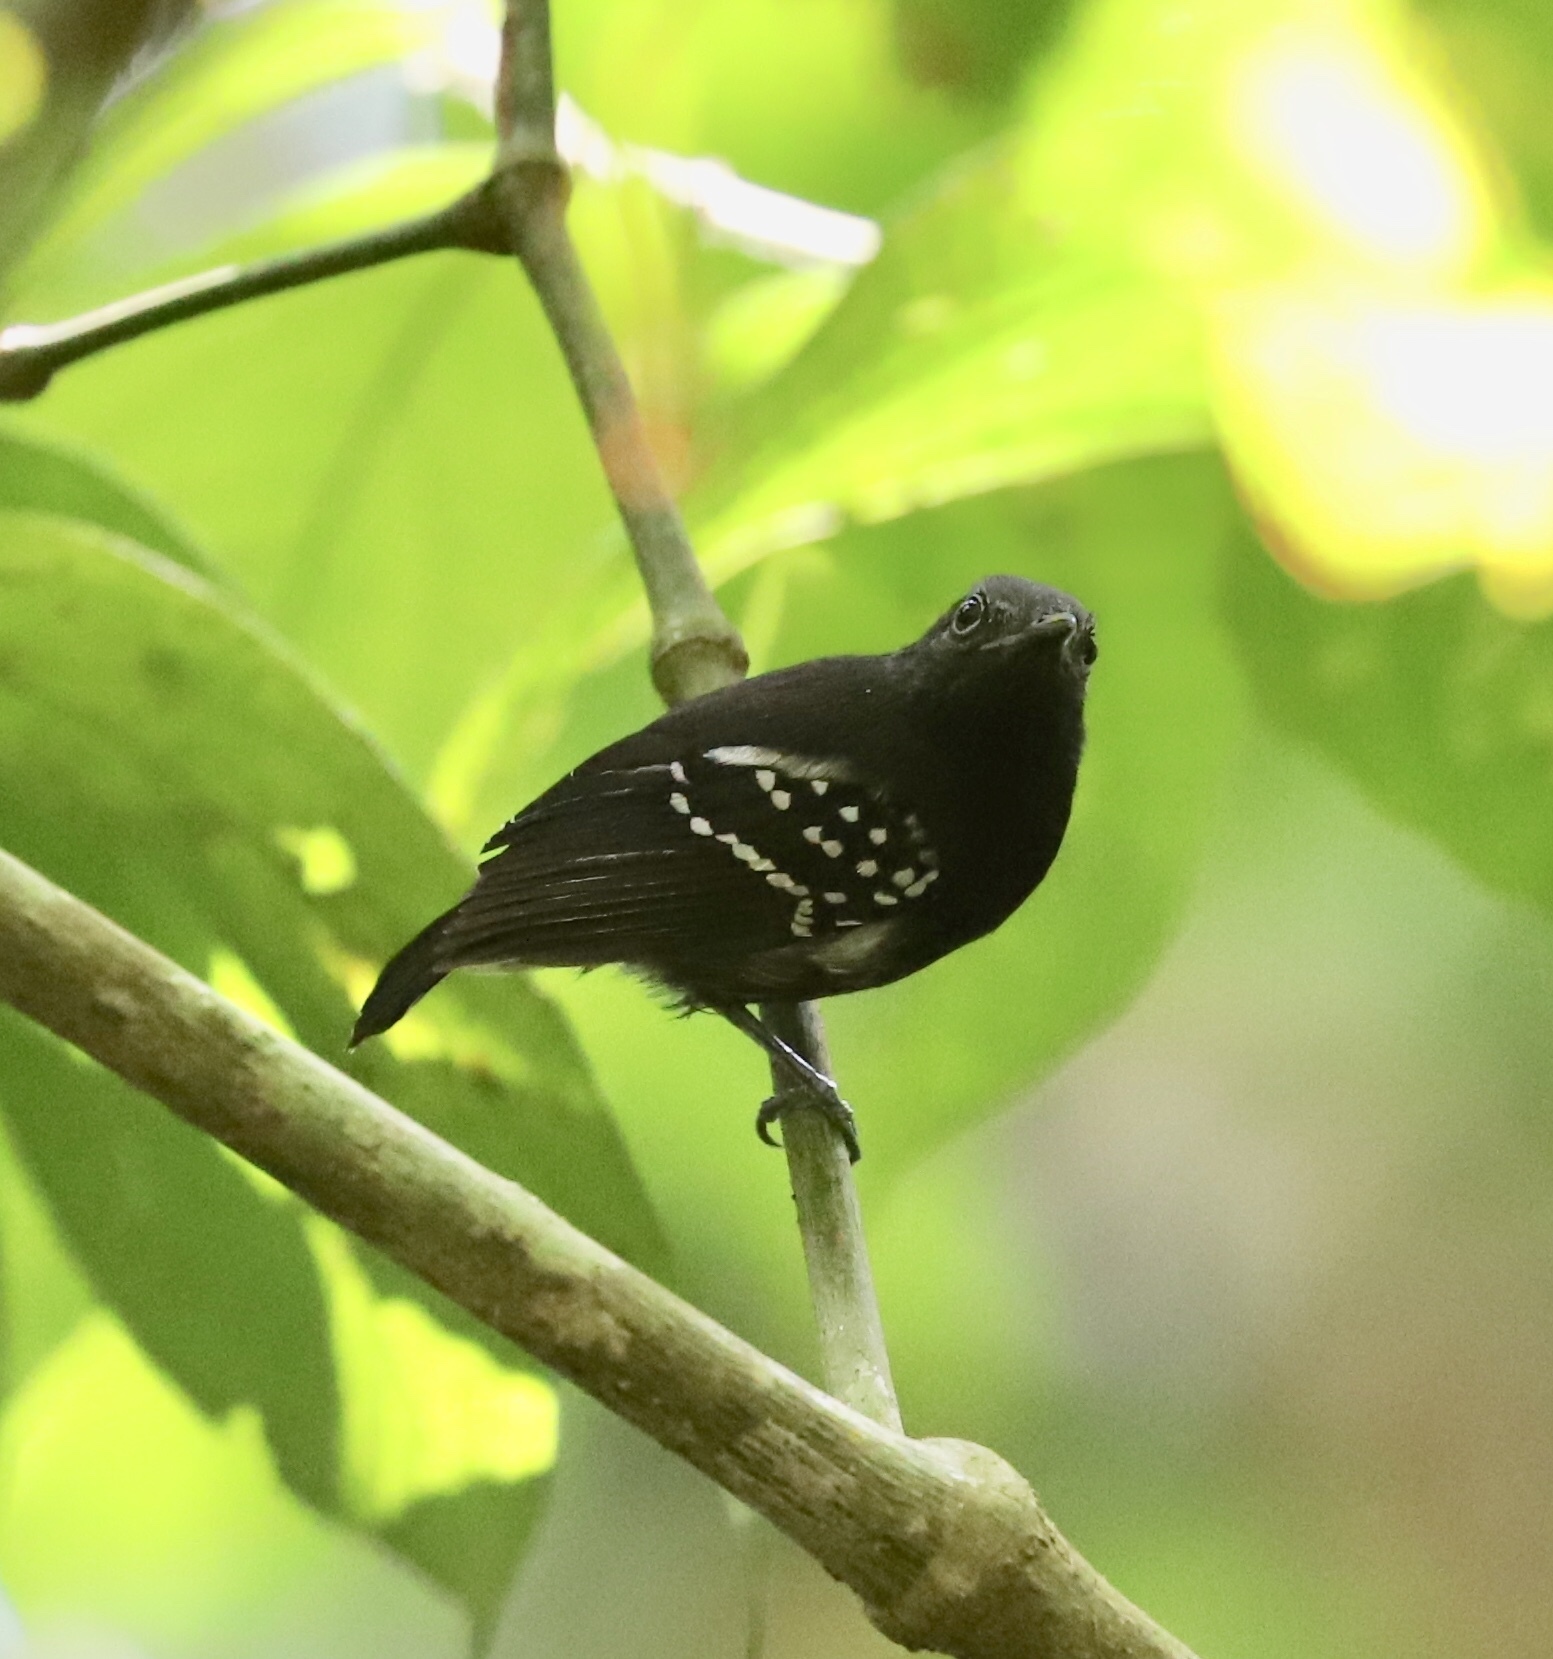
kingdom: Animalia
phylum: Chordata
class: Aves
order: Passeriformes
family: Thamnophilidae
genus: Myrmotherula
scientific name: Myrmotherula axillaris
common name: White-flanked antwren
